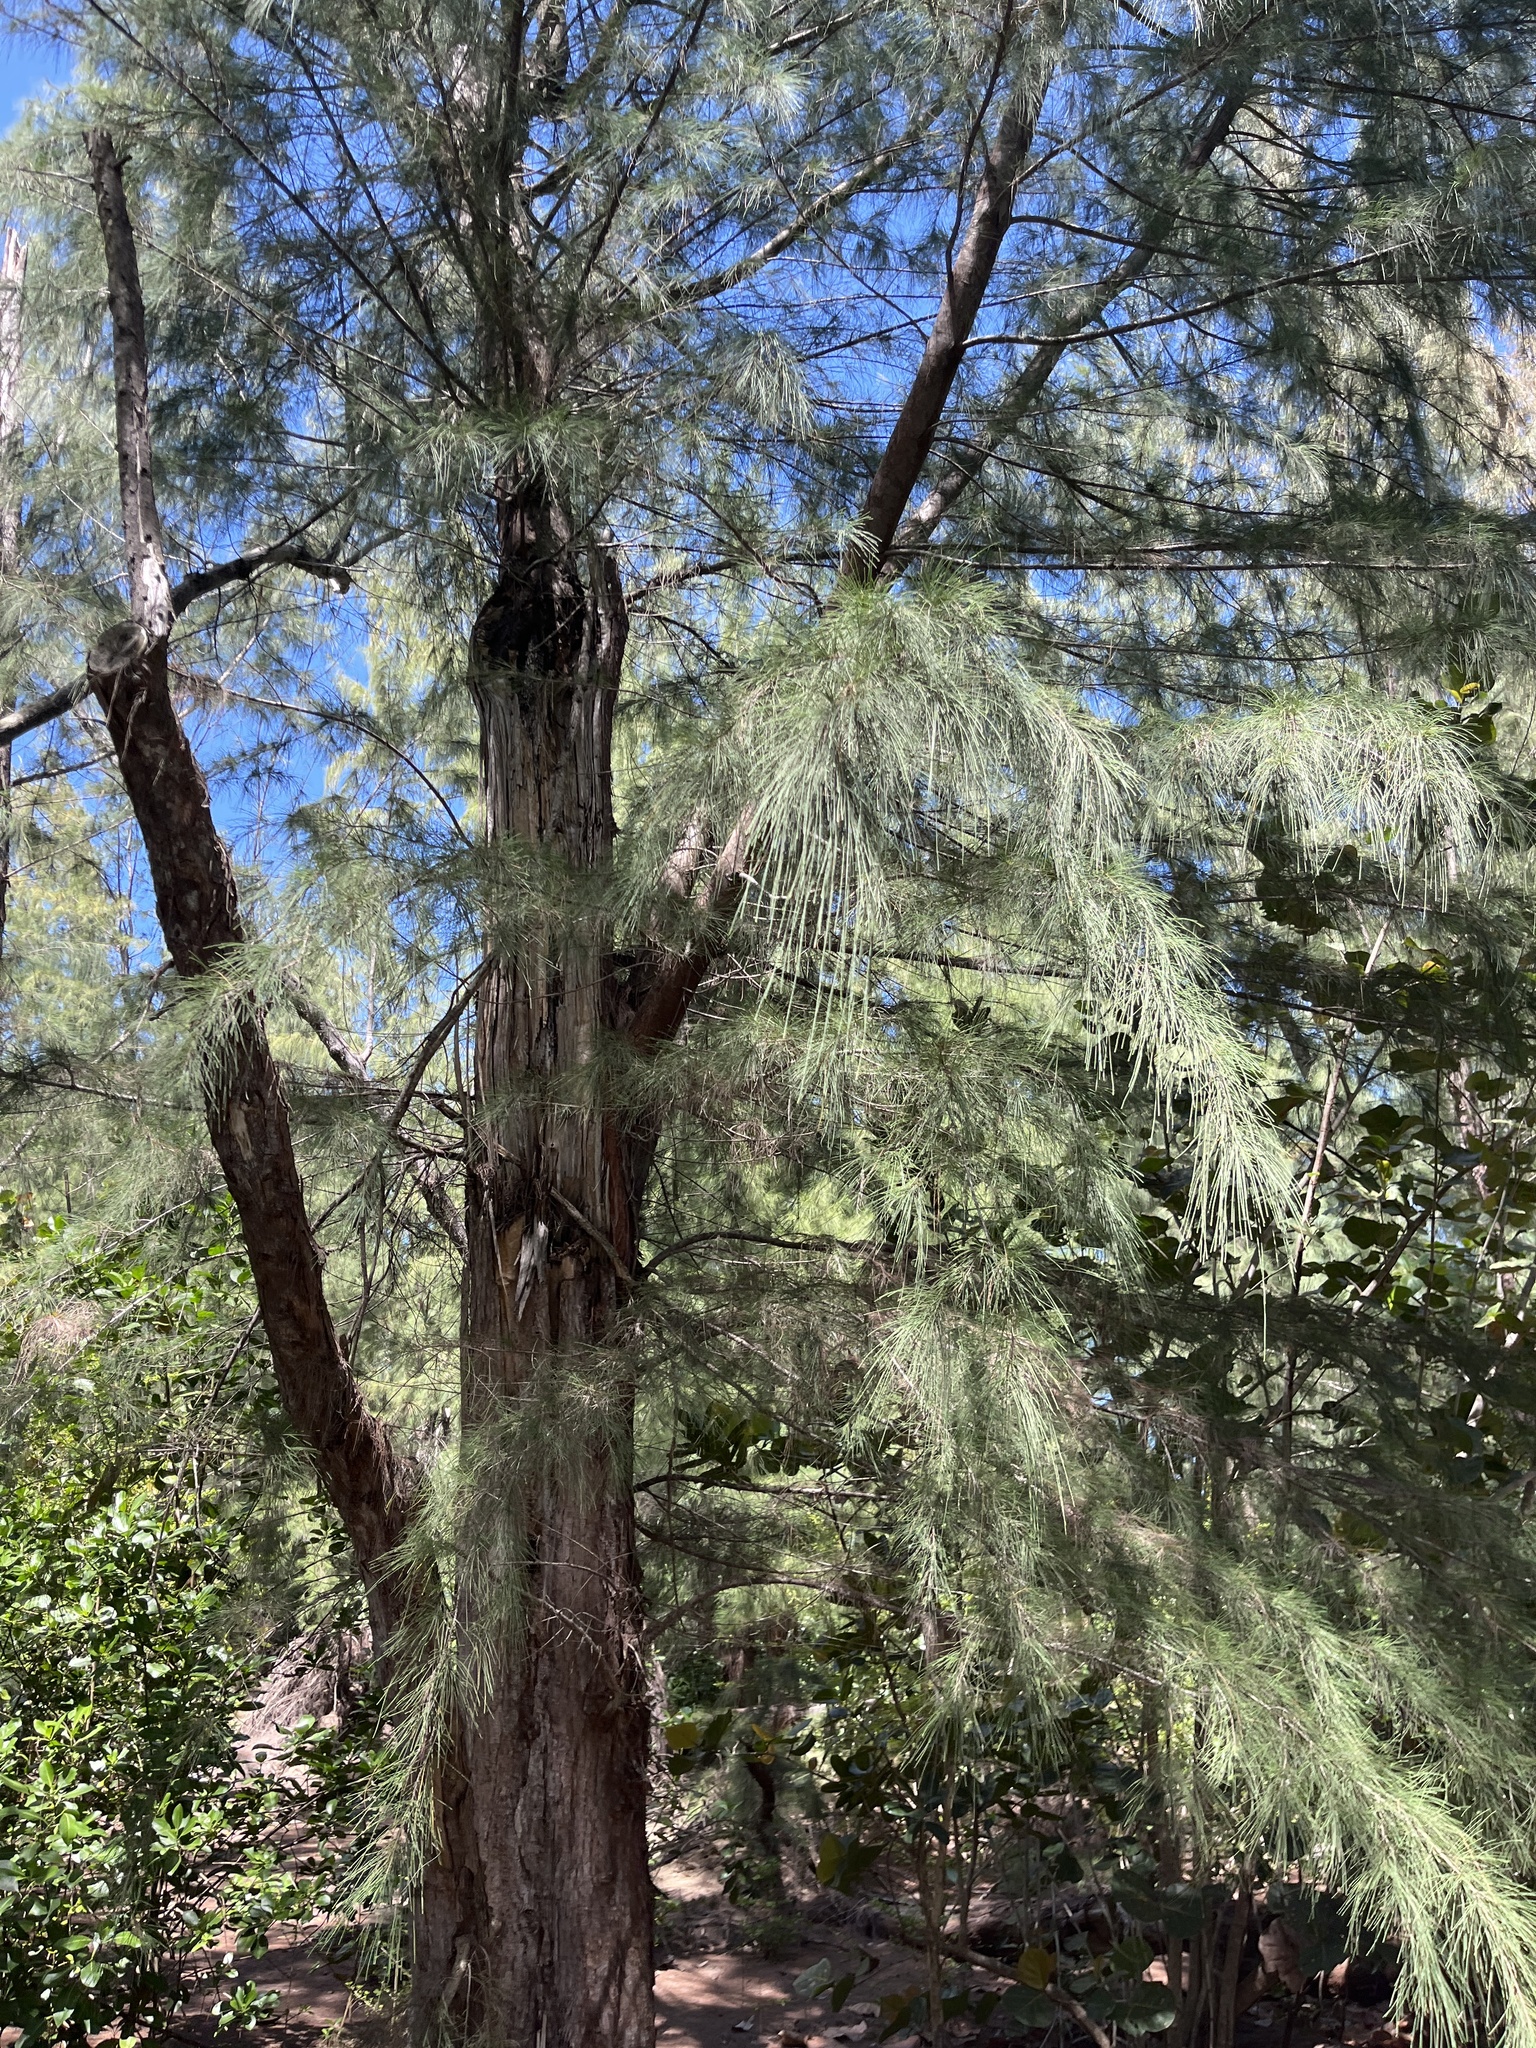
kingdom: Plantae
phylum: Tracheophyta
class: Magnoliopsida
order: Fagales
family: Casuarinaceae
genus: Casuarina
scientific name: Casuarina equisetifolia
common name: Beach sheoak
